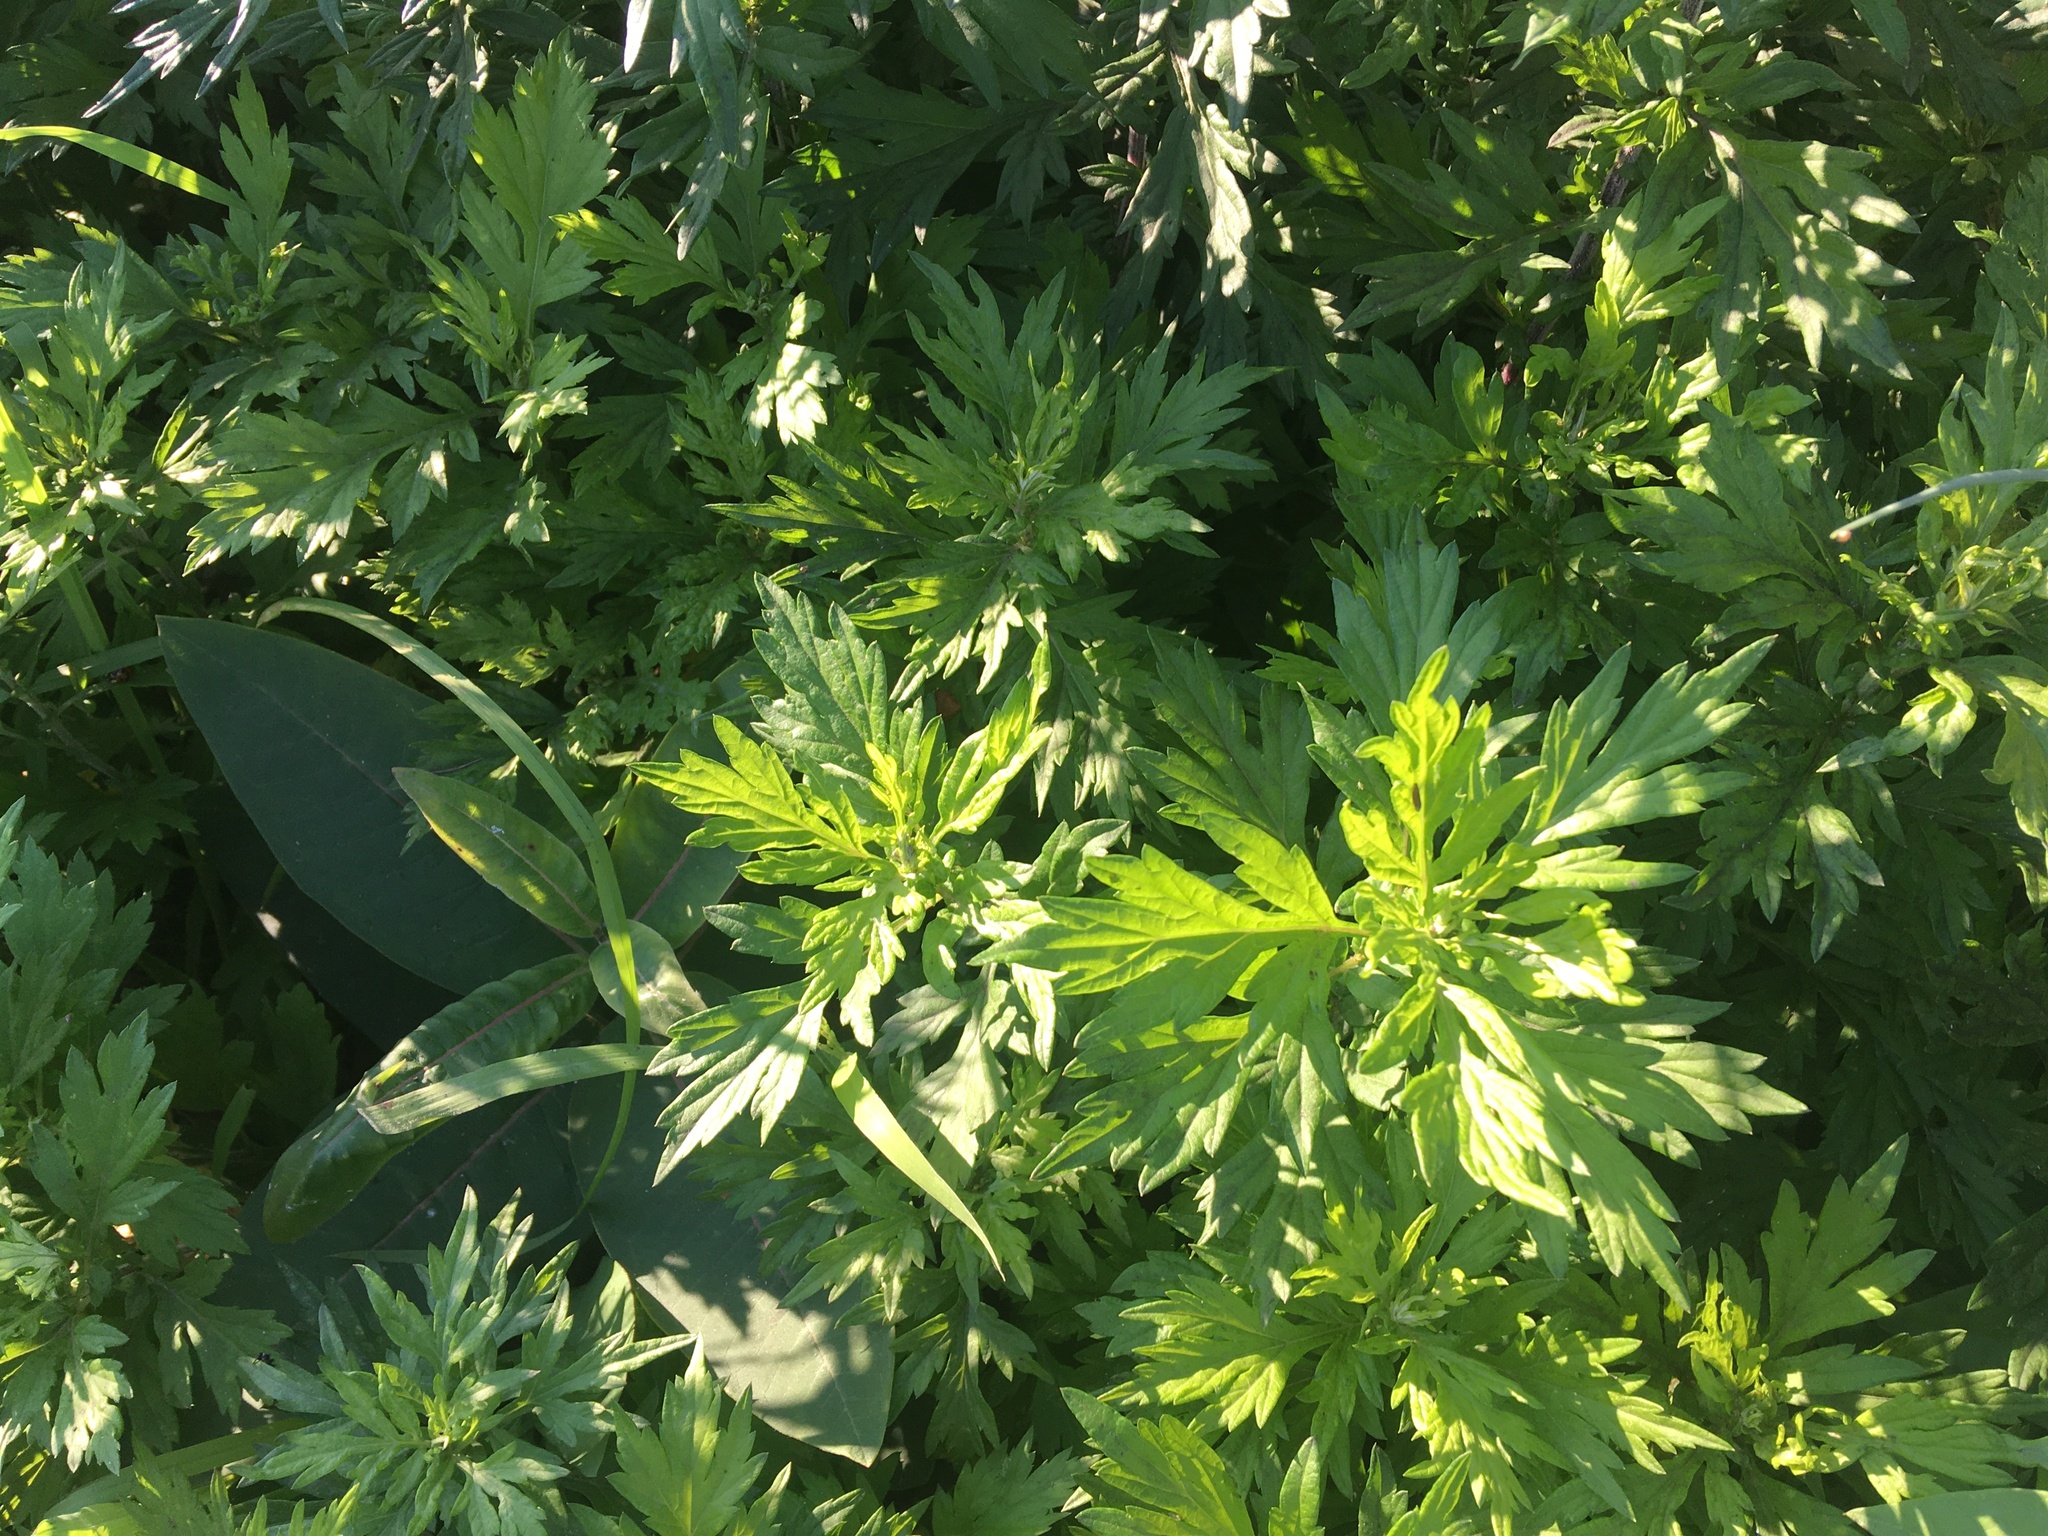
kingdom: Plantae
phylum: Tracheophyta
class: Magnoliopsida
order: Asterales
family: Asteraceae
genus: Artemisia
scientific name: Artemisia vulgaris
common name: Mugwort
